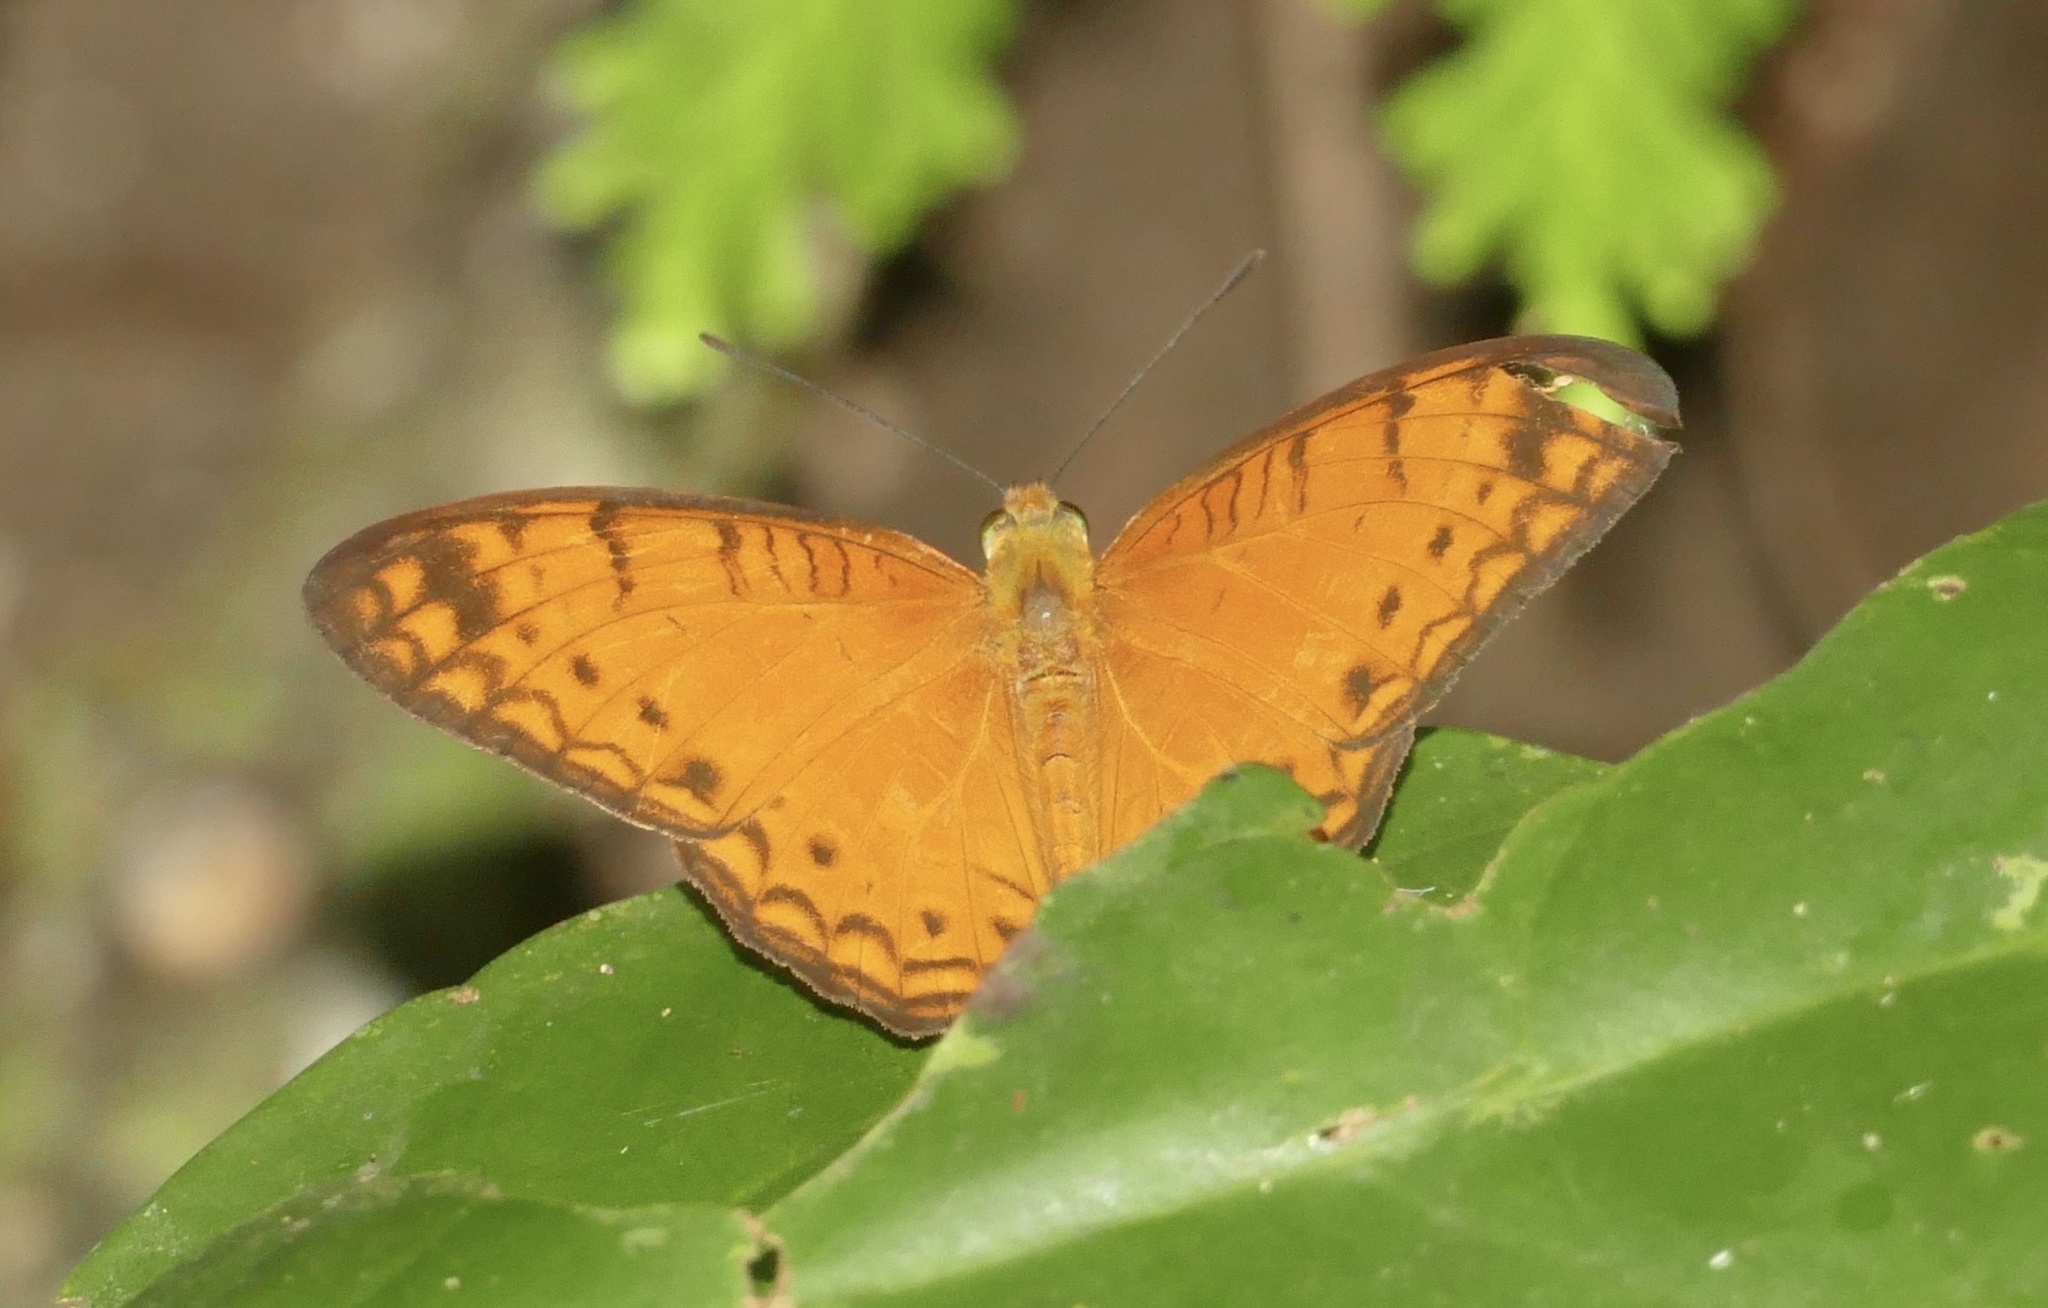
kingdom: Animalia
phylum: Arthropoda
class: Insecta
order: Lepidoptera
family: Nymphalidae
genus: Phalanta
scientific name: Phalanta alcippe
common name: Small leopard
